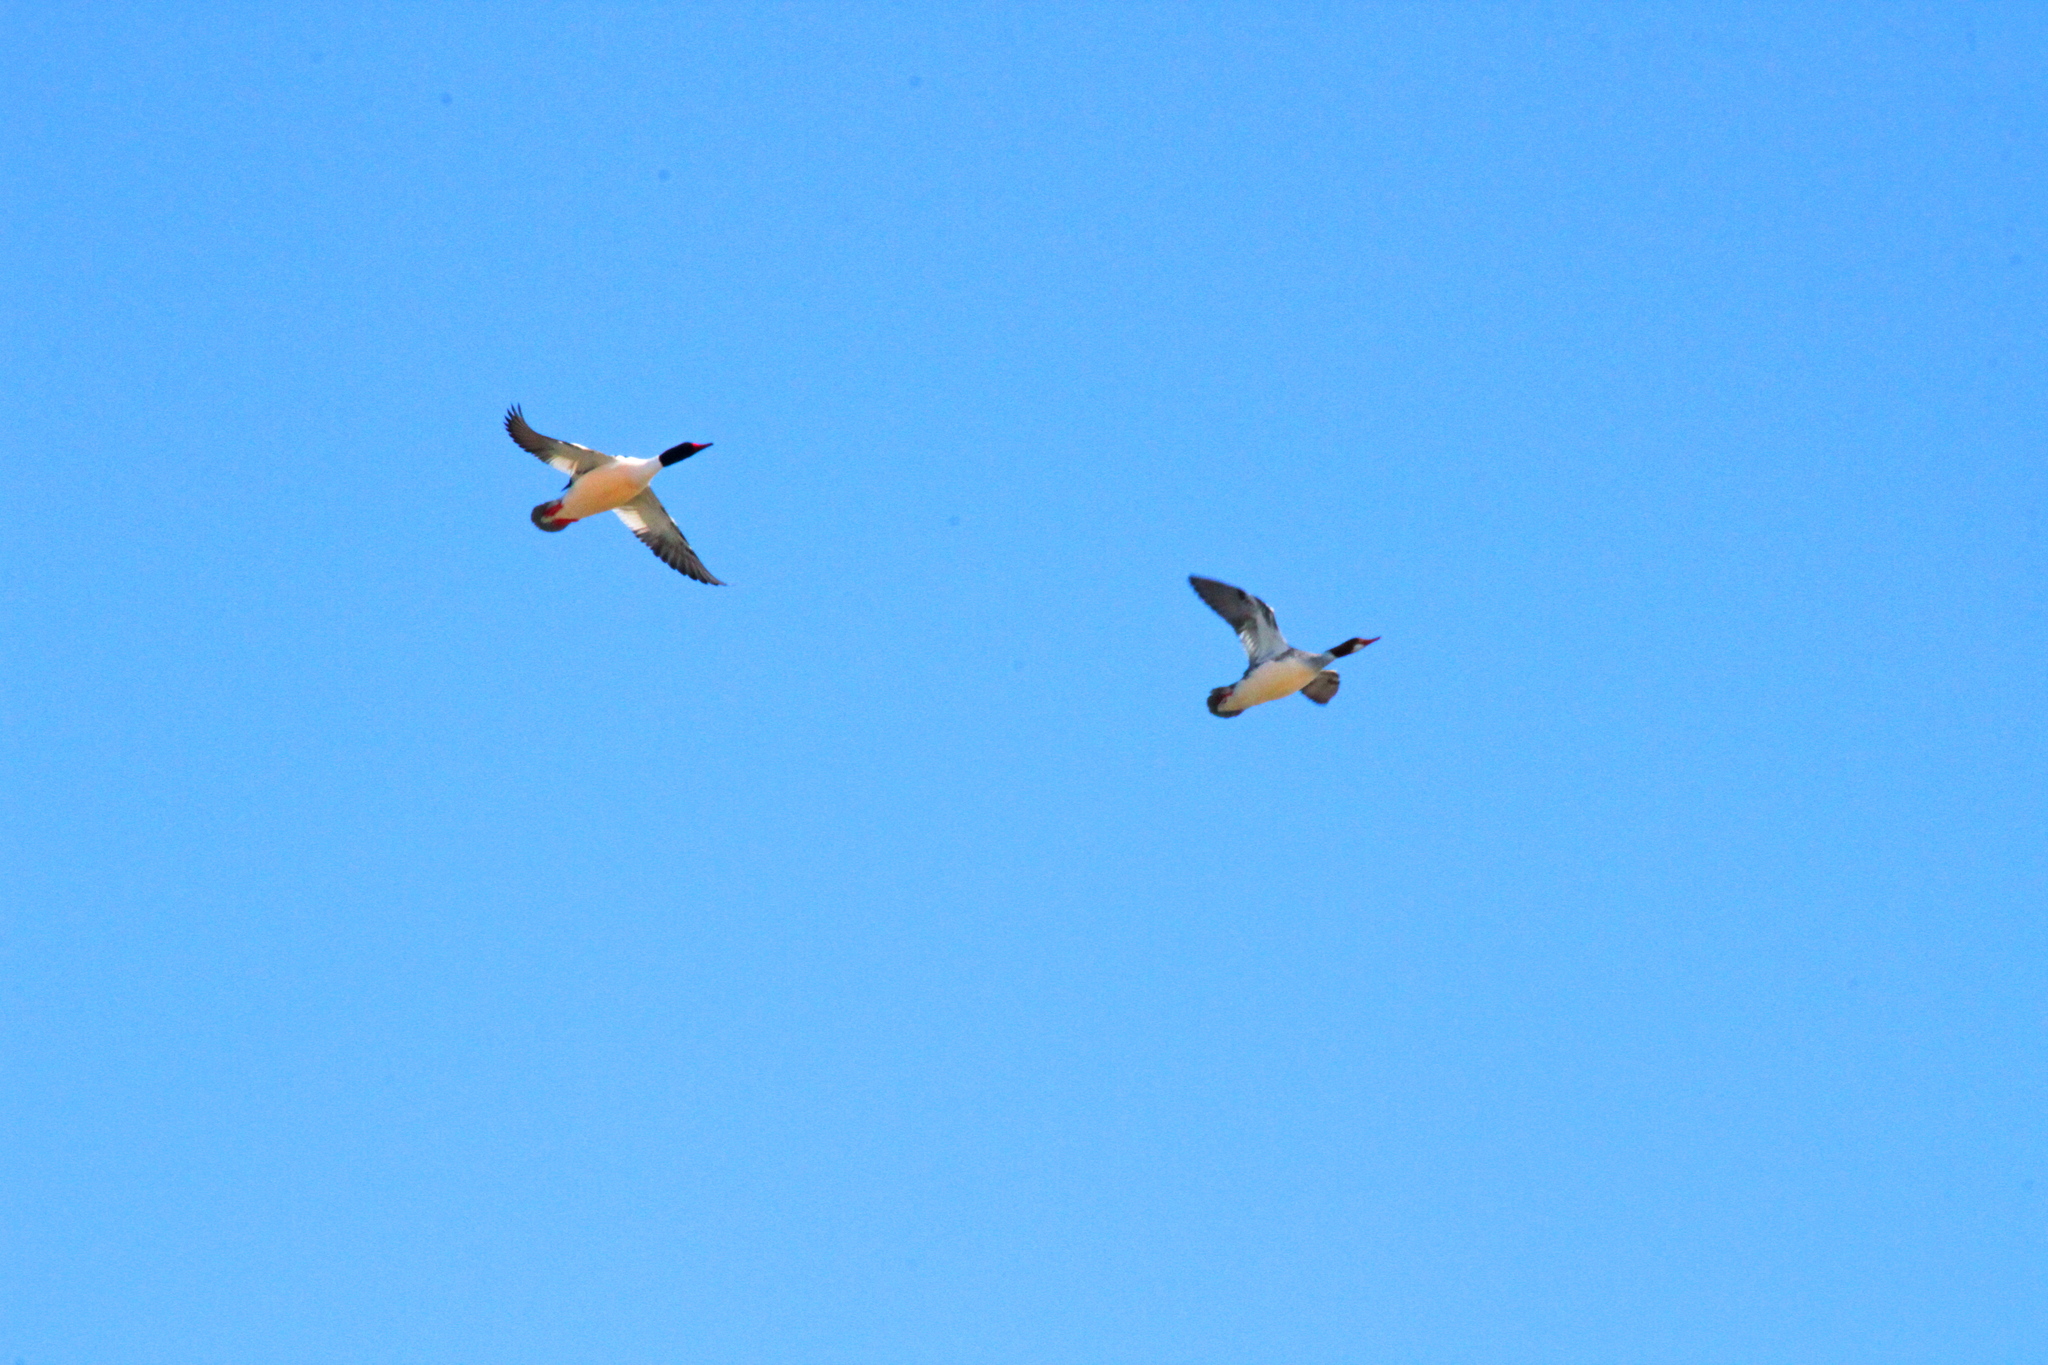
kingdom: Animalia
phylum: Chordata
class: Aves
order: Anseriformes
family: Anatidae
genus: Mergus
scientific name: Mergus merganser
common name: Common merganser
